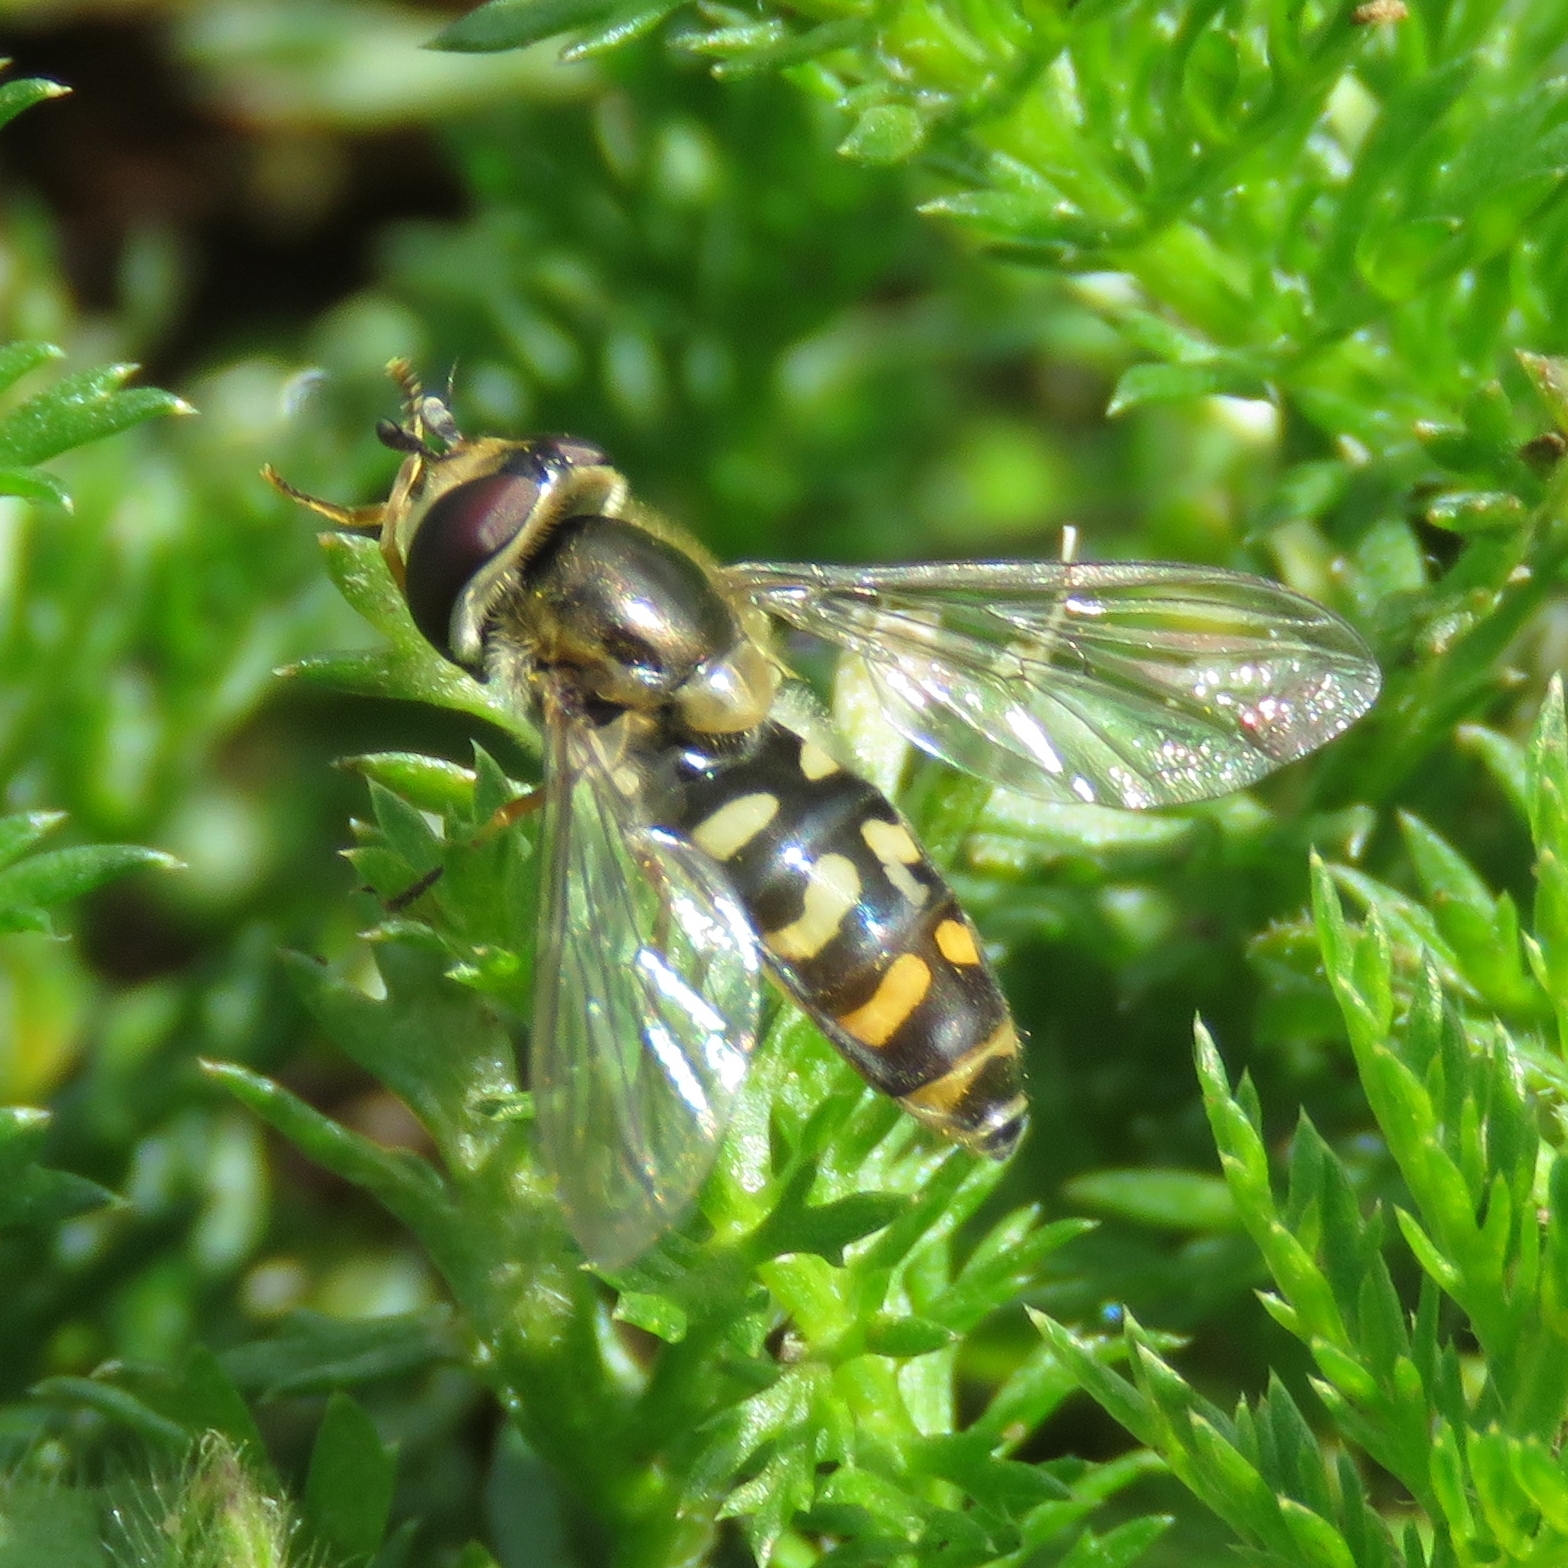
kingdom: Animalia
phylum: Arthropoda
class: Insecta
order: Diptera
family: Syrphidae
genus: Eupeodes
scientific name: Eupeodes luniger
